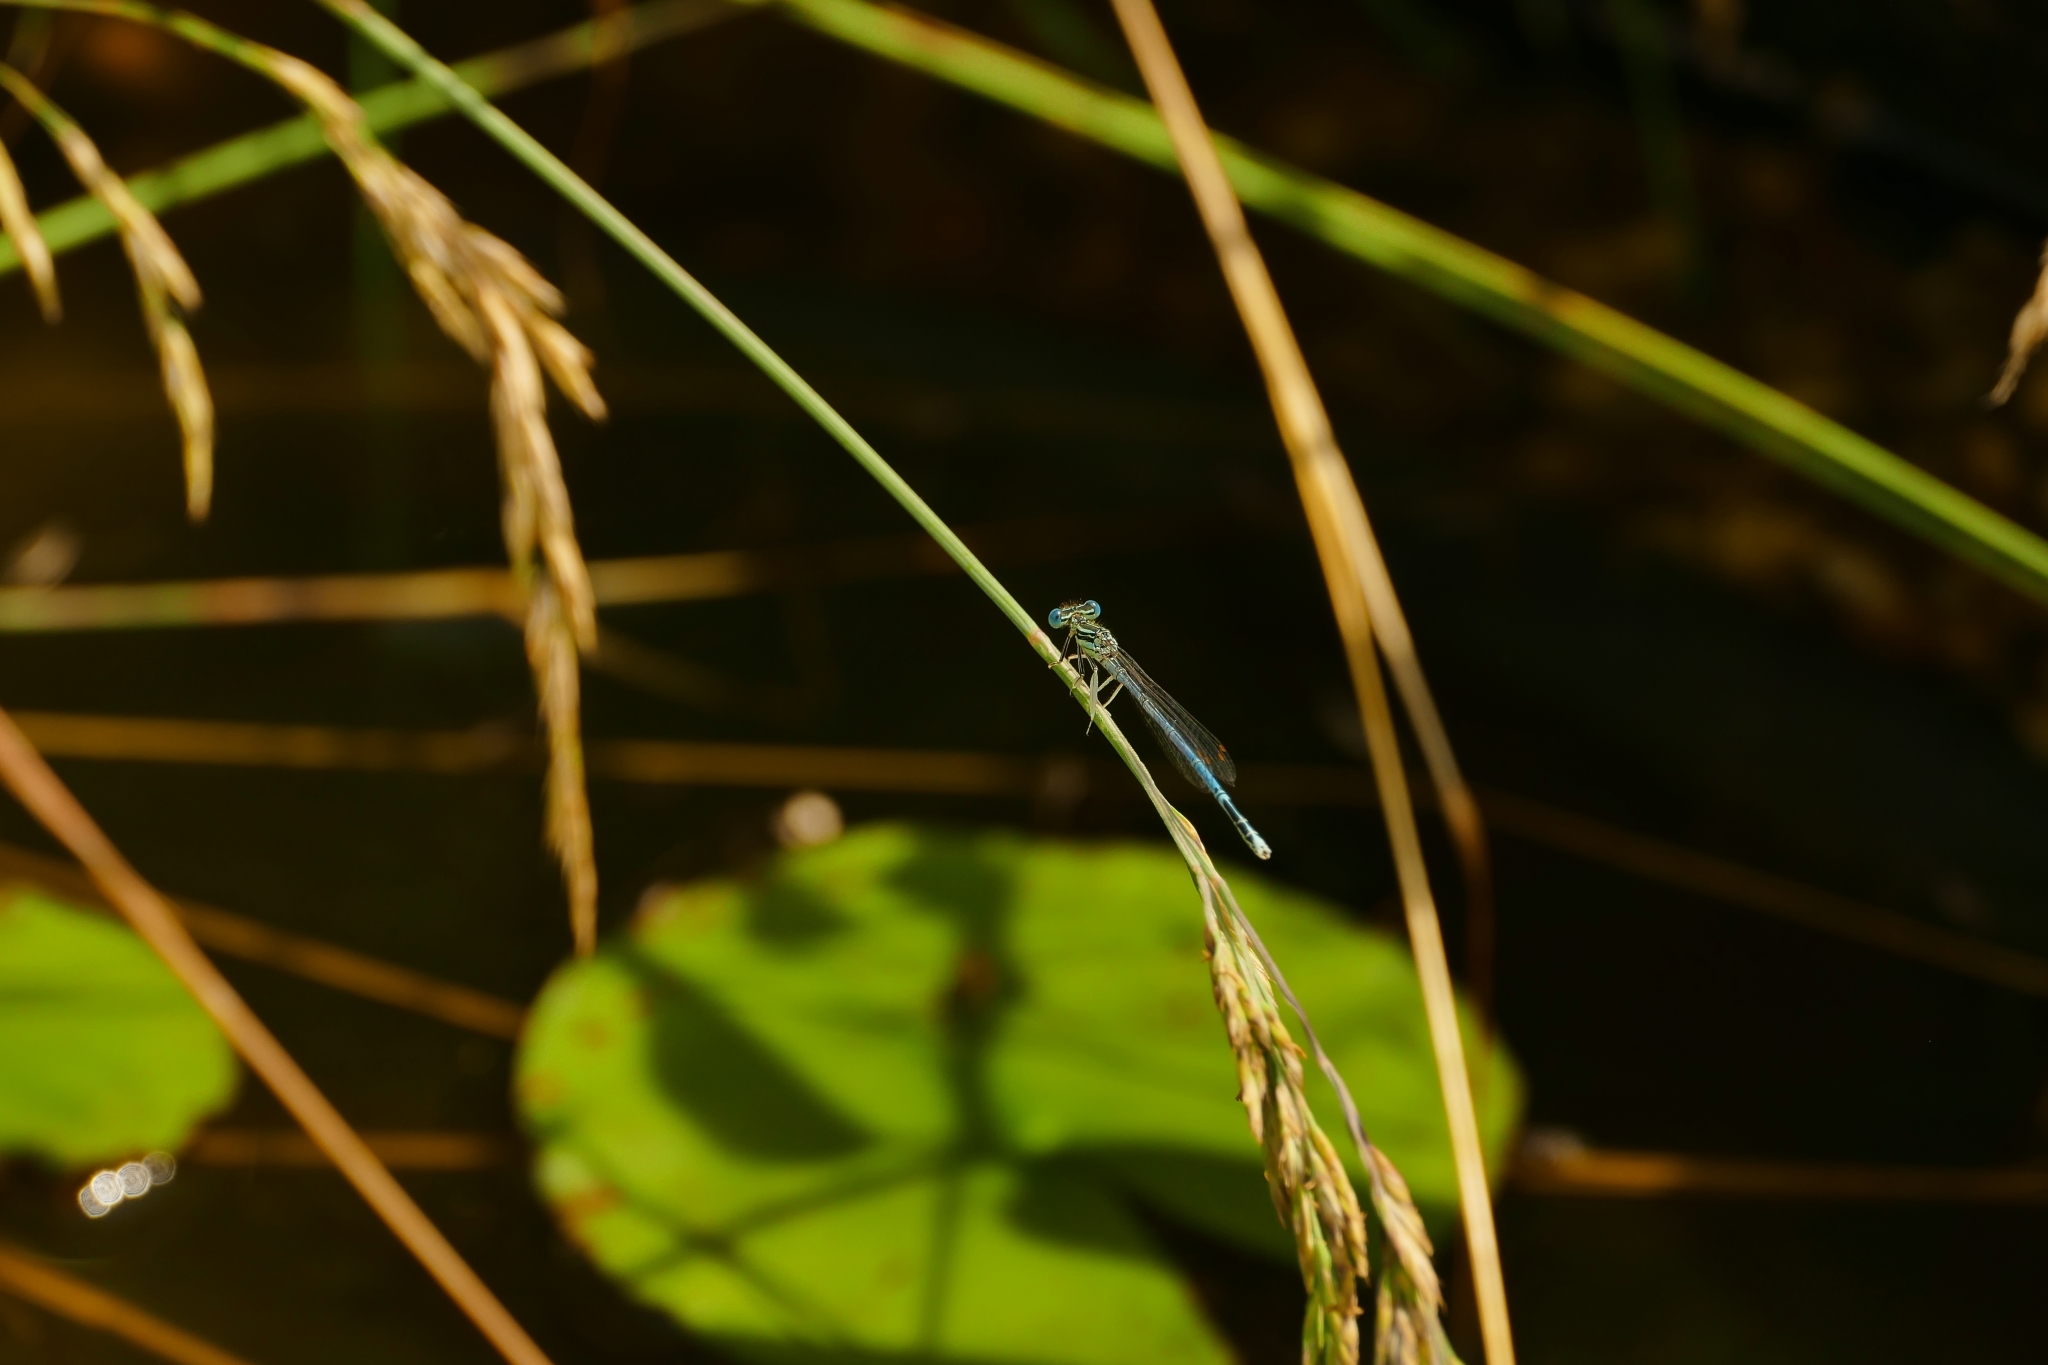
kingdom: Animalia
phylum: Arthropoda
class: Insecta
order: Odonata
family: Platycnemididae
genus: Platycnemis
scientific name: Platycnemis pennipes
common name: White-legged damselfly
